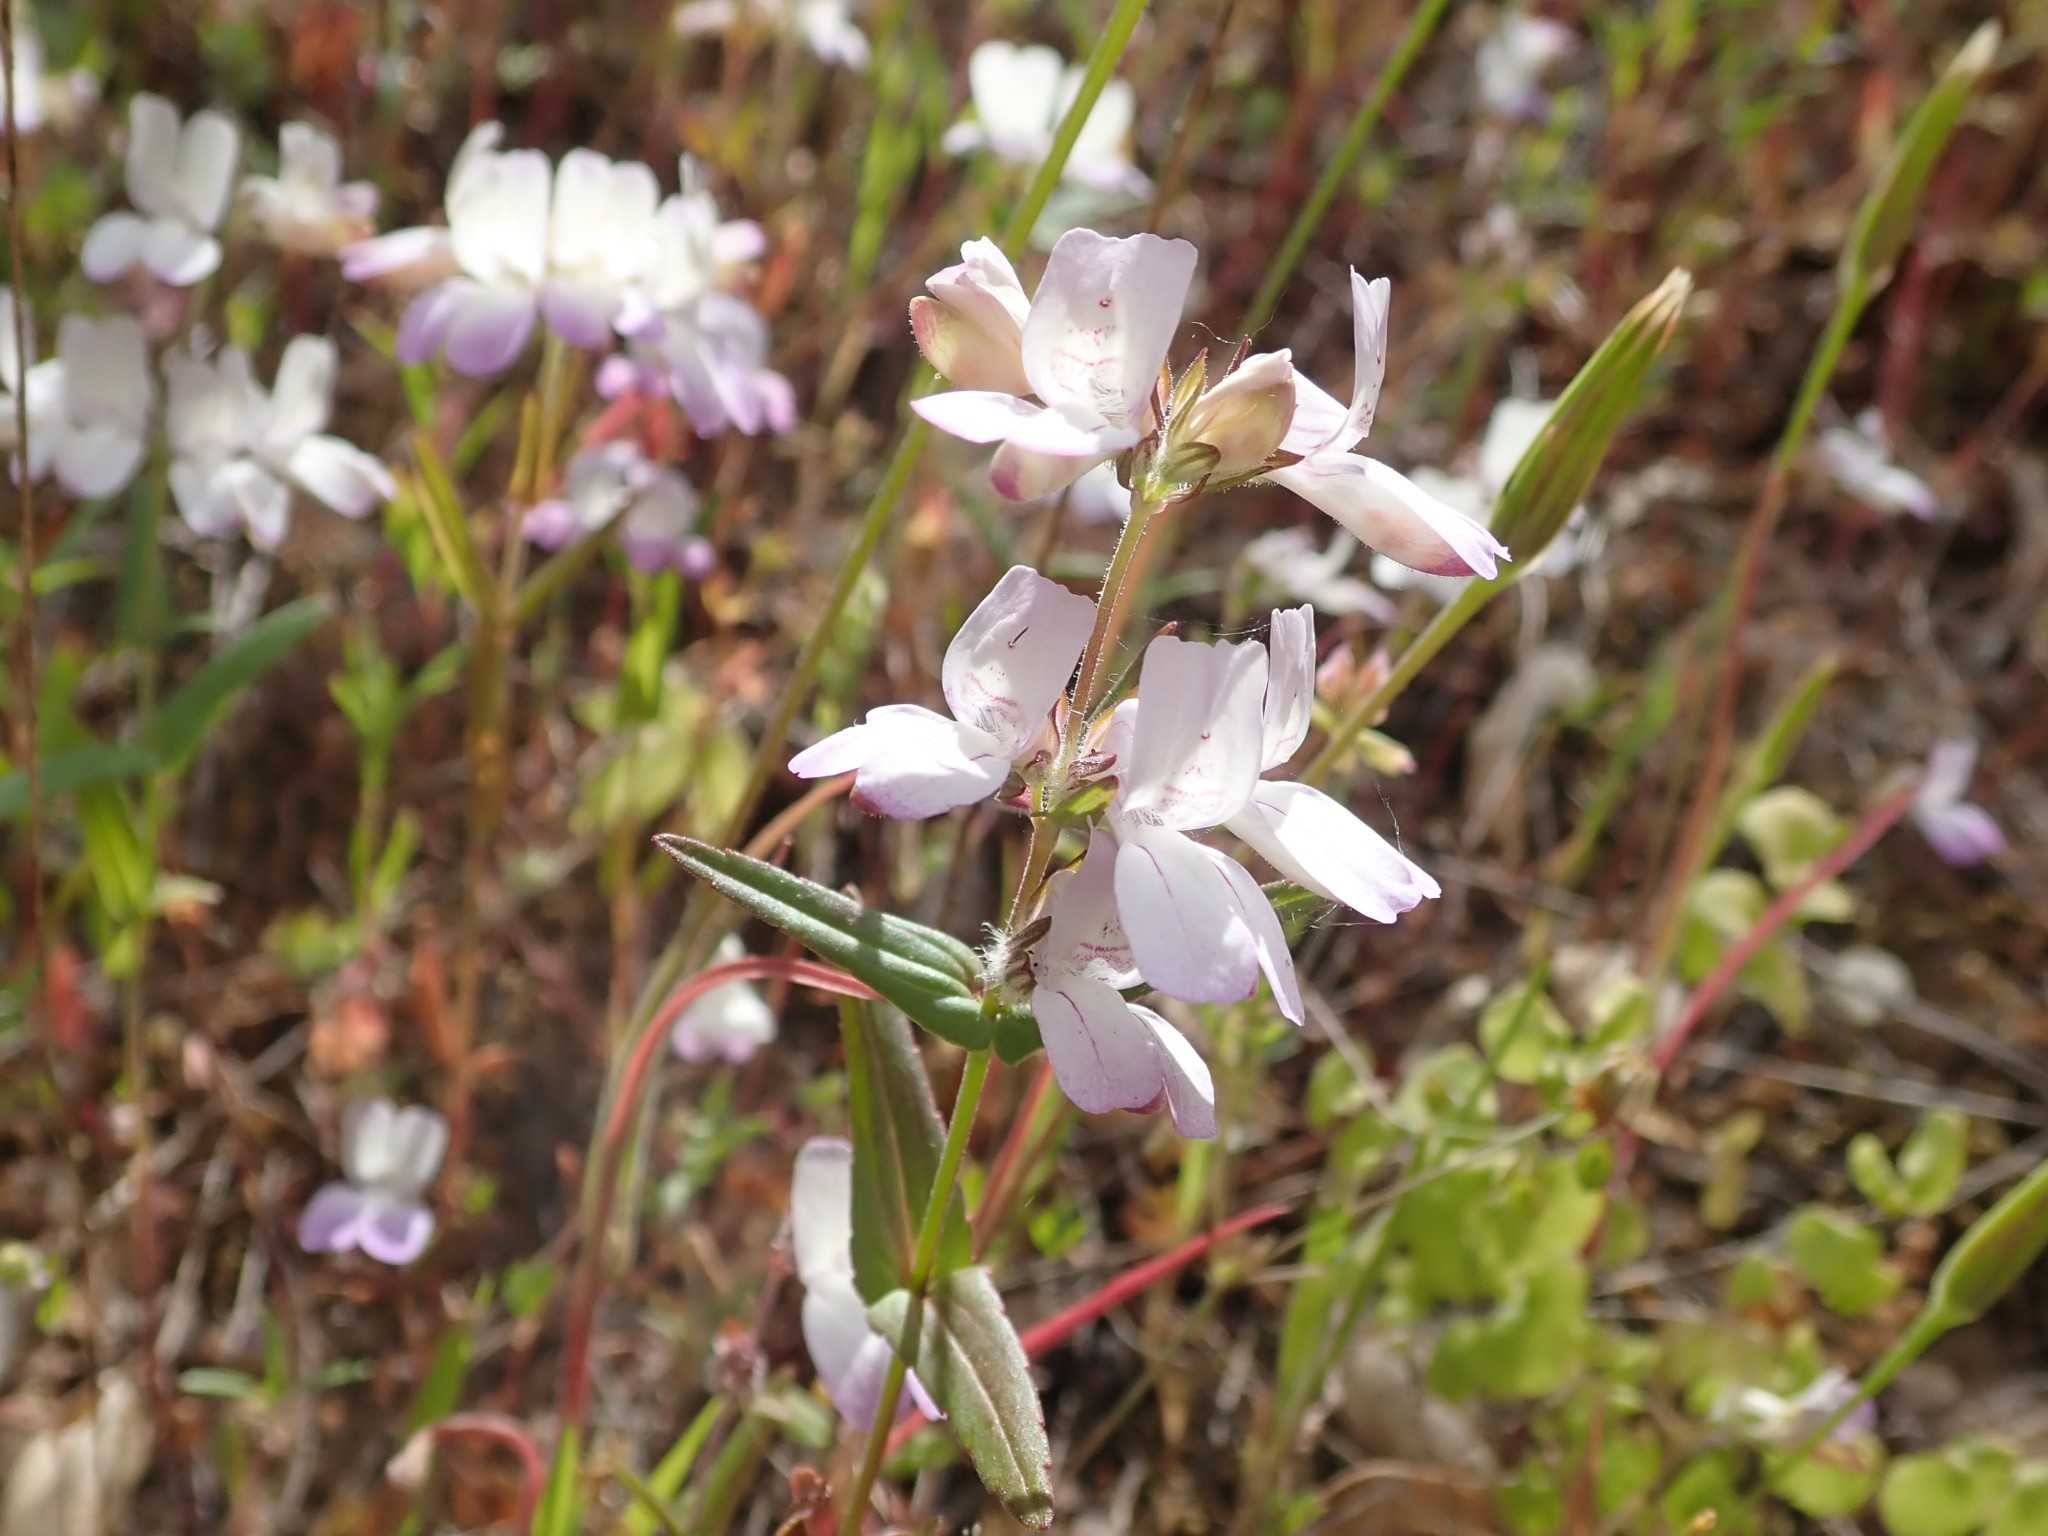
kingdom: Plantae
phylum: Tracheophyta
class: Magnoliopsida
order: Lamiales
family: Plantaginaceae
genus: Collinsia
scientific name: Collinsia heterophylla
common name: Chinese-houses
